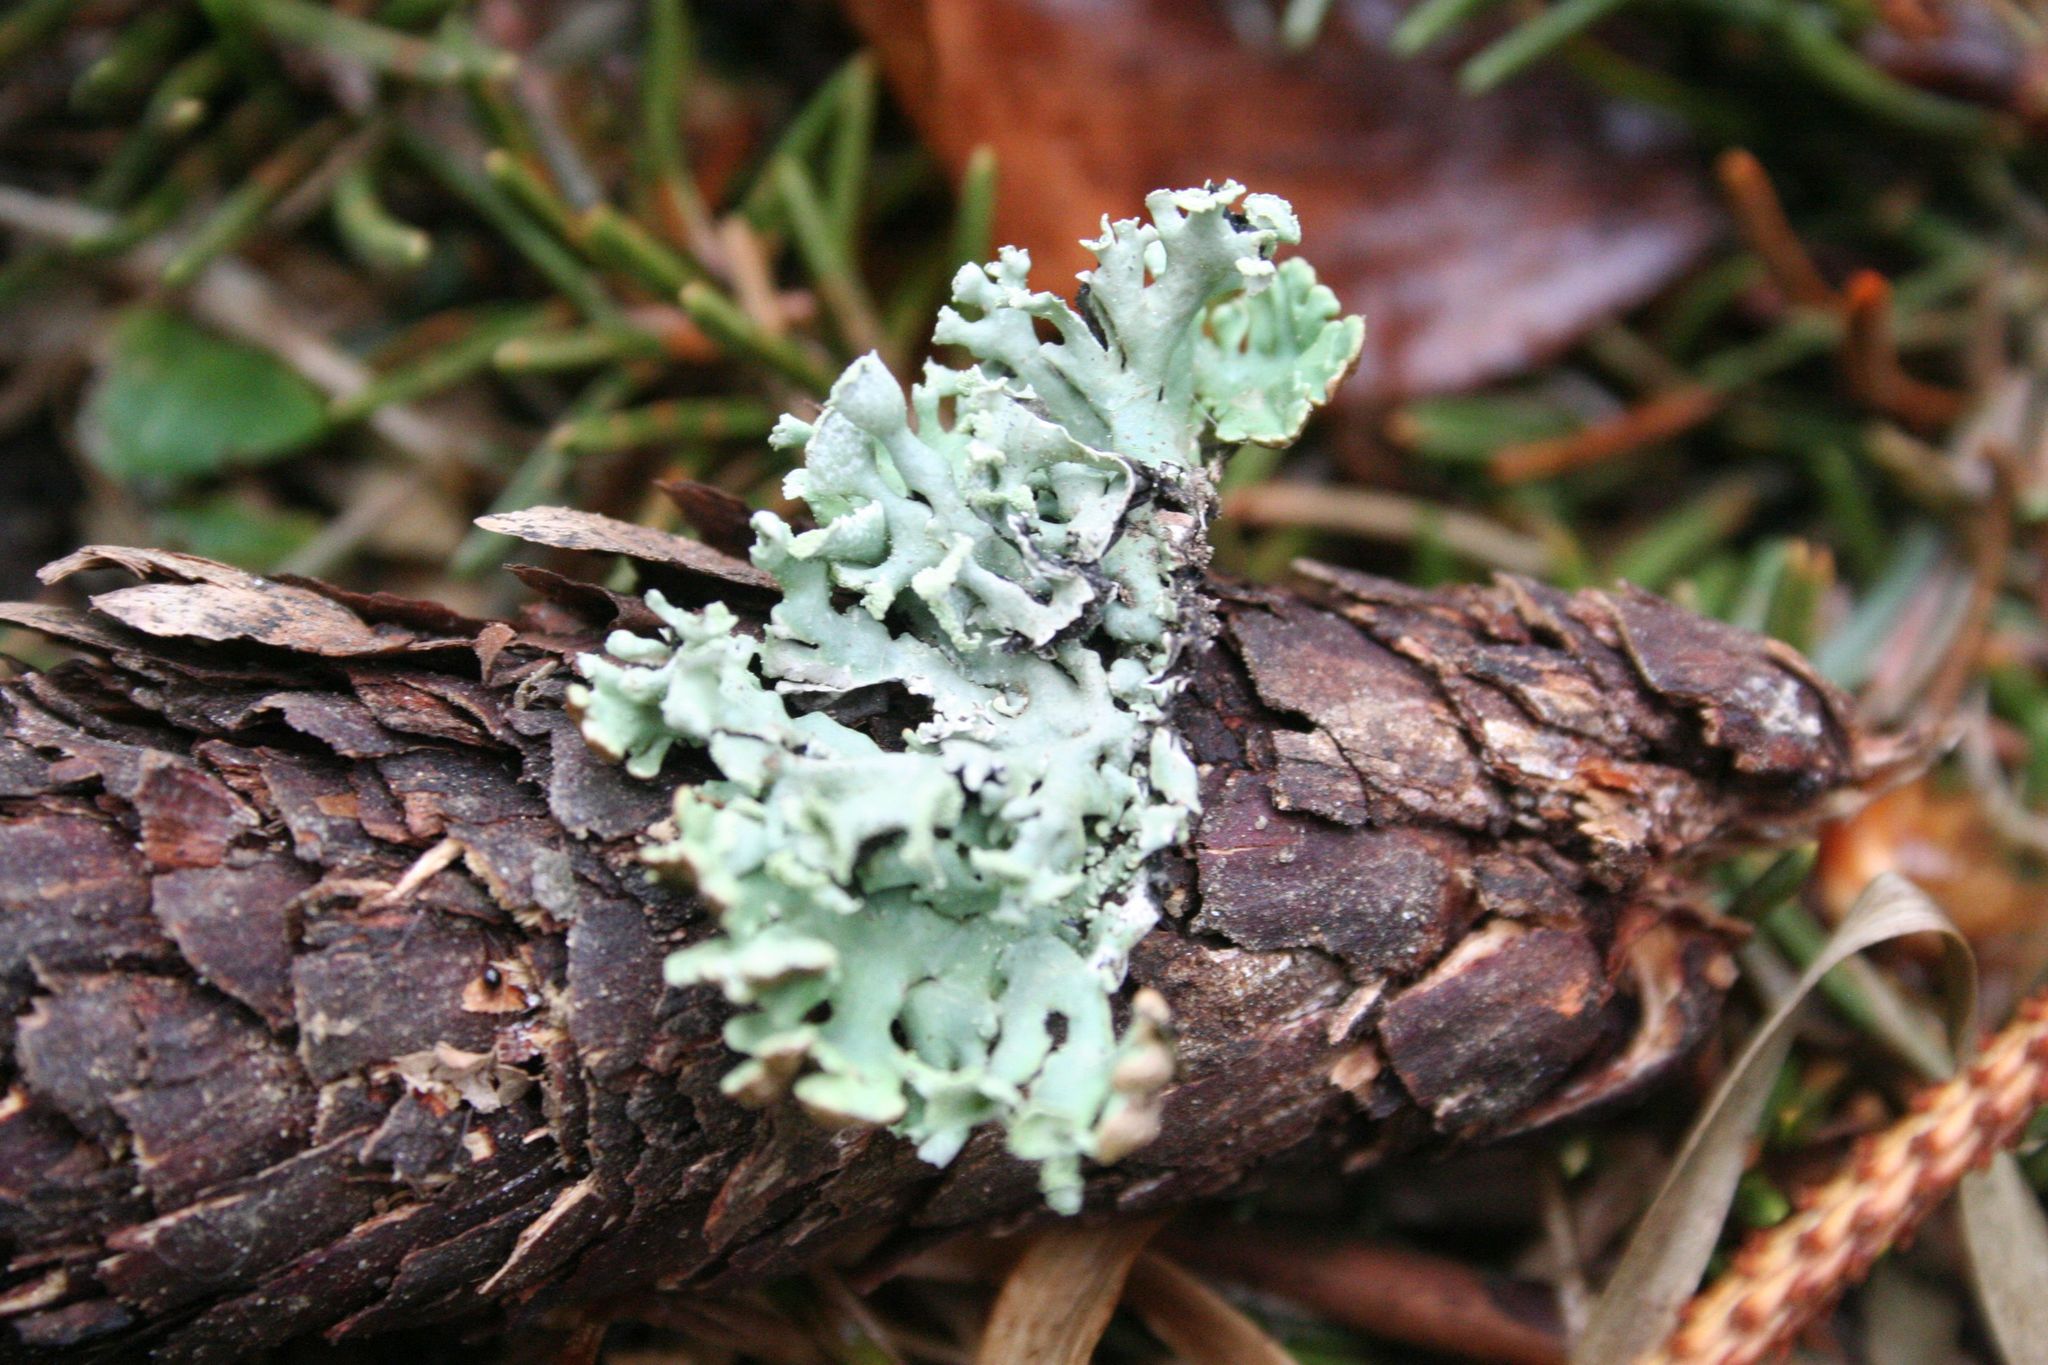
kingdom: Fungi
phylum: Ascomycota
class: Lecanoromycetes
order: Lecanorales
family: Parmeliaceae
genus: Hypogymnia
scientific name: Hypogymnia physodes
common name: Dark crottle
